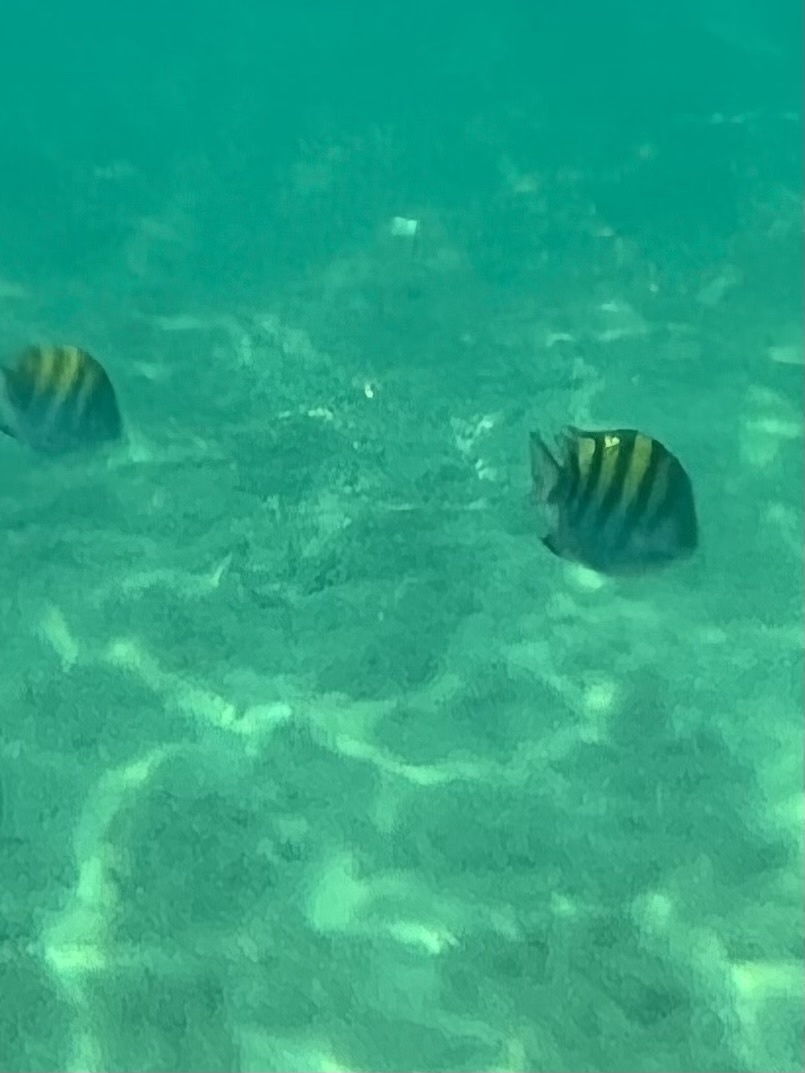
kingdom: Animalia
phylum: Chordata
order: Perciformes
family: Pomacentridae
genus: Abudefduf
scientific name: Abudefduf troschelii
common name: Panamic sergeant major
